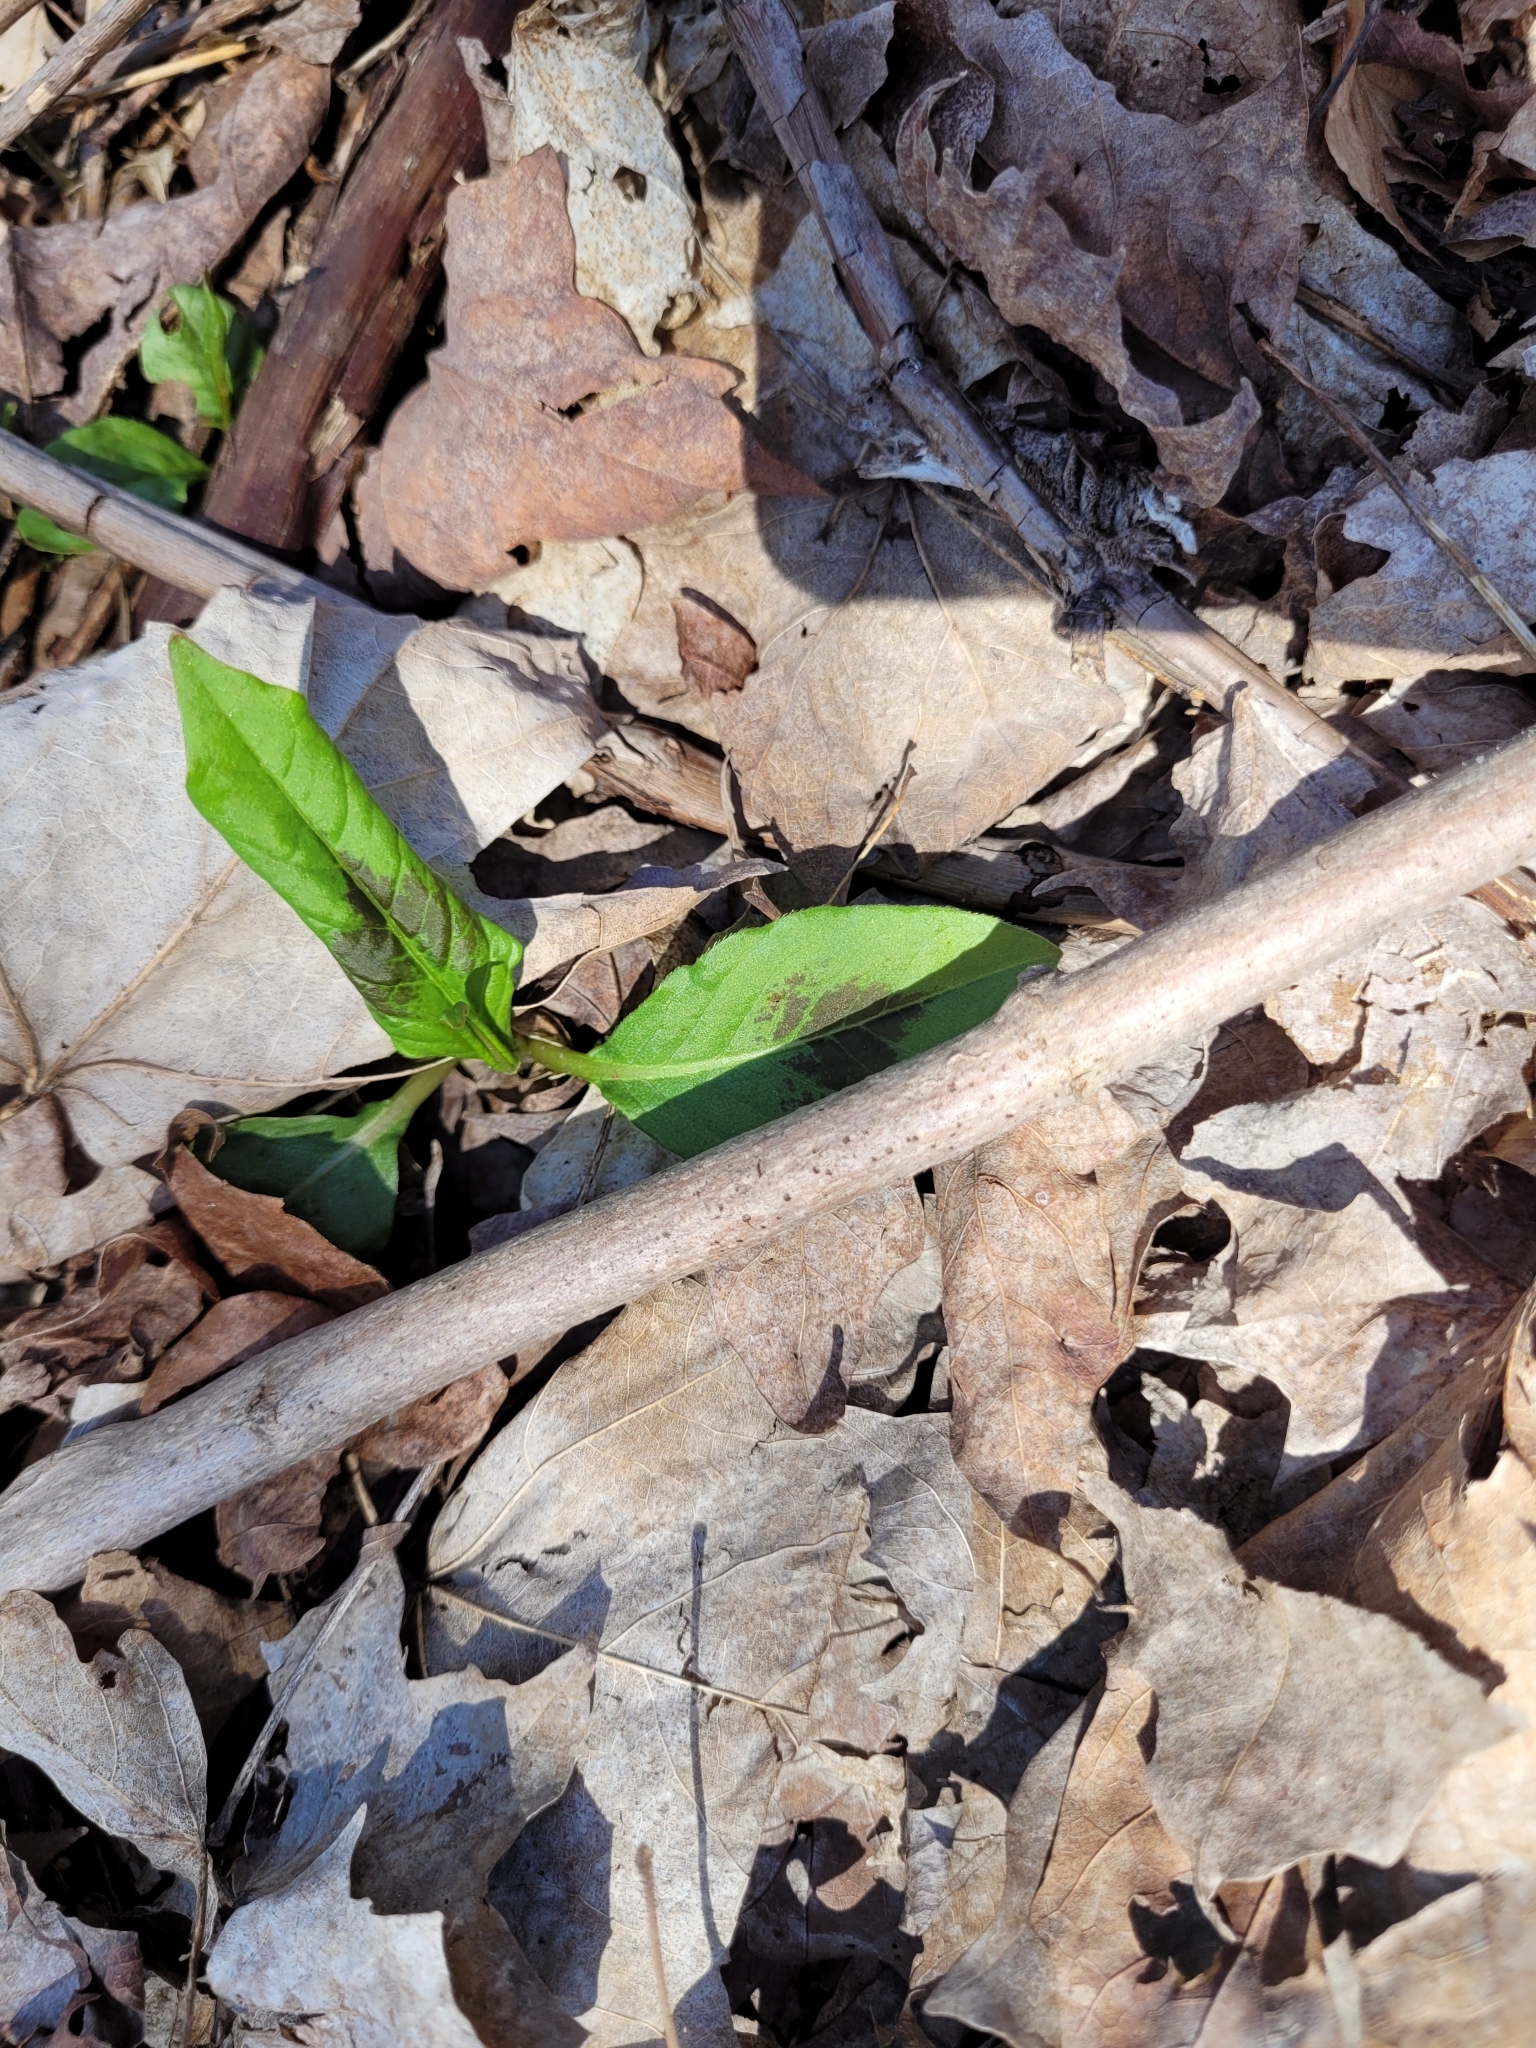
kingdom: Plantae
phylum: Tracheophyta
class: Magnoliopsida
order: Caryophyllales
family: Polygonaceae
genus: Persicaria
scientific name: Persicaria virginiana
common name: Jumpseed
